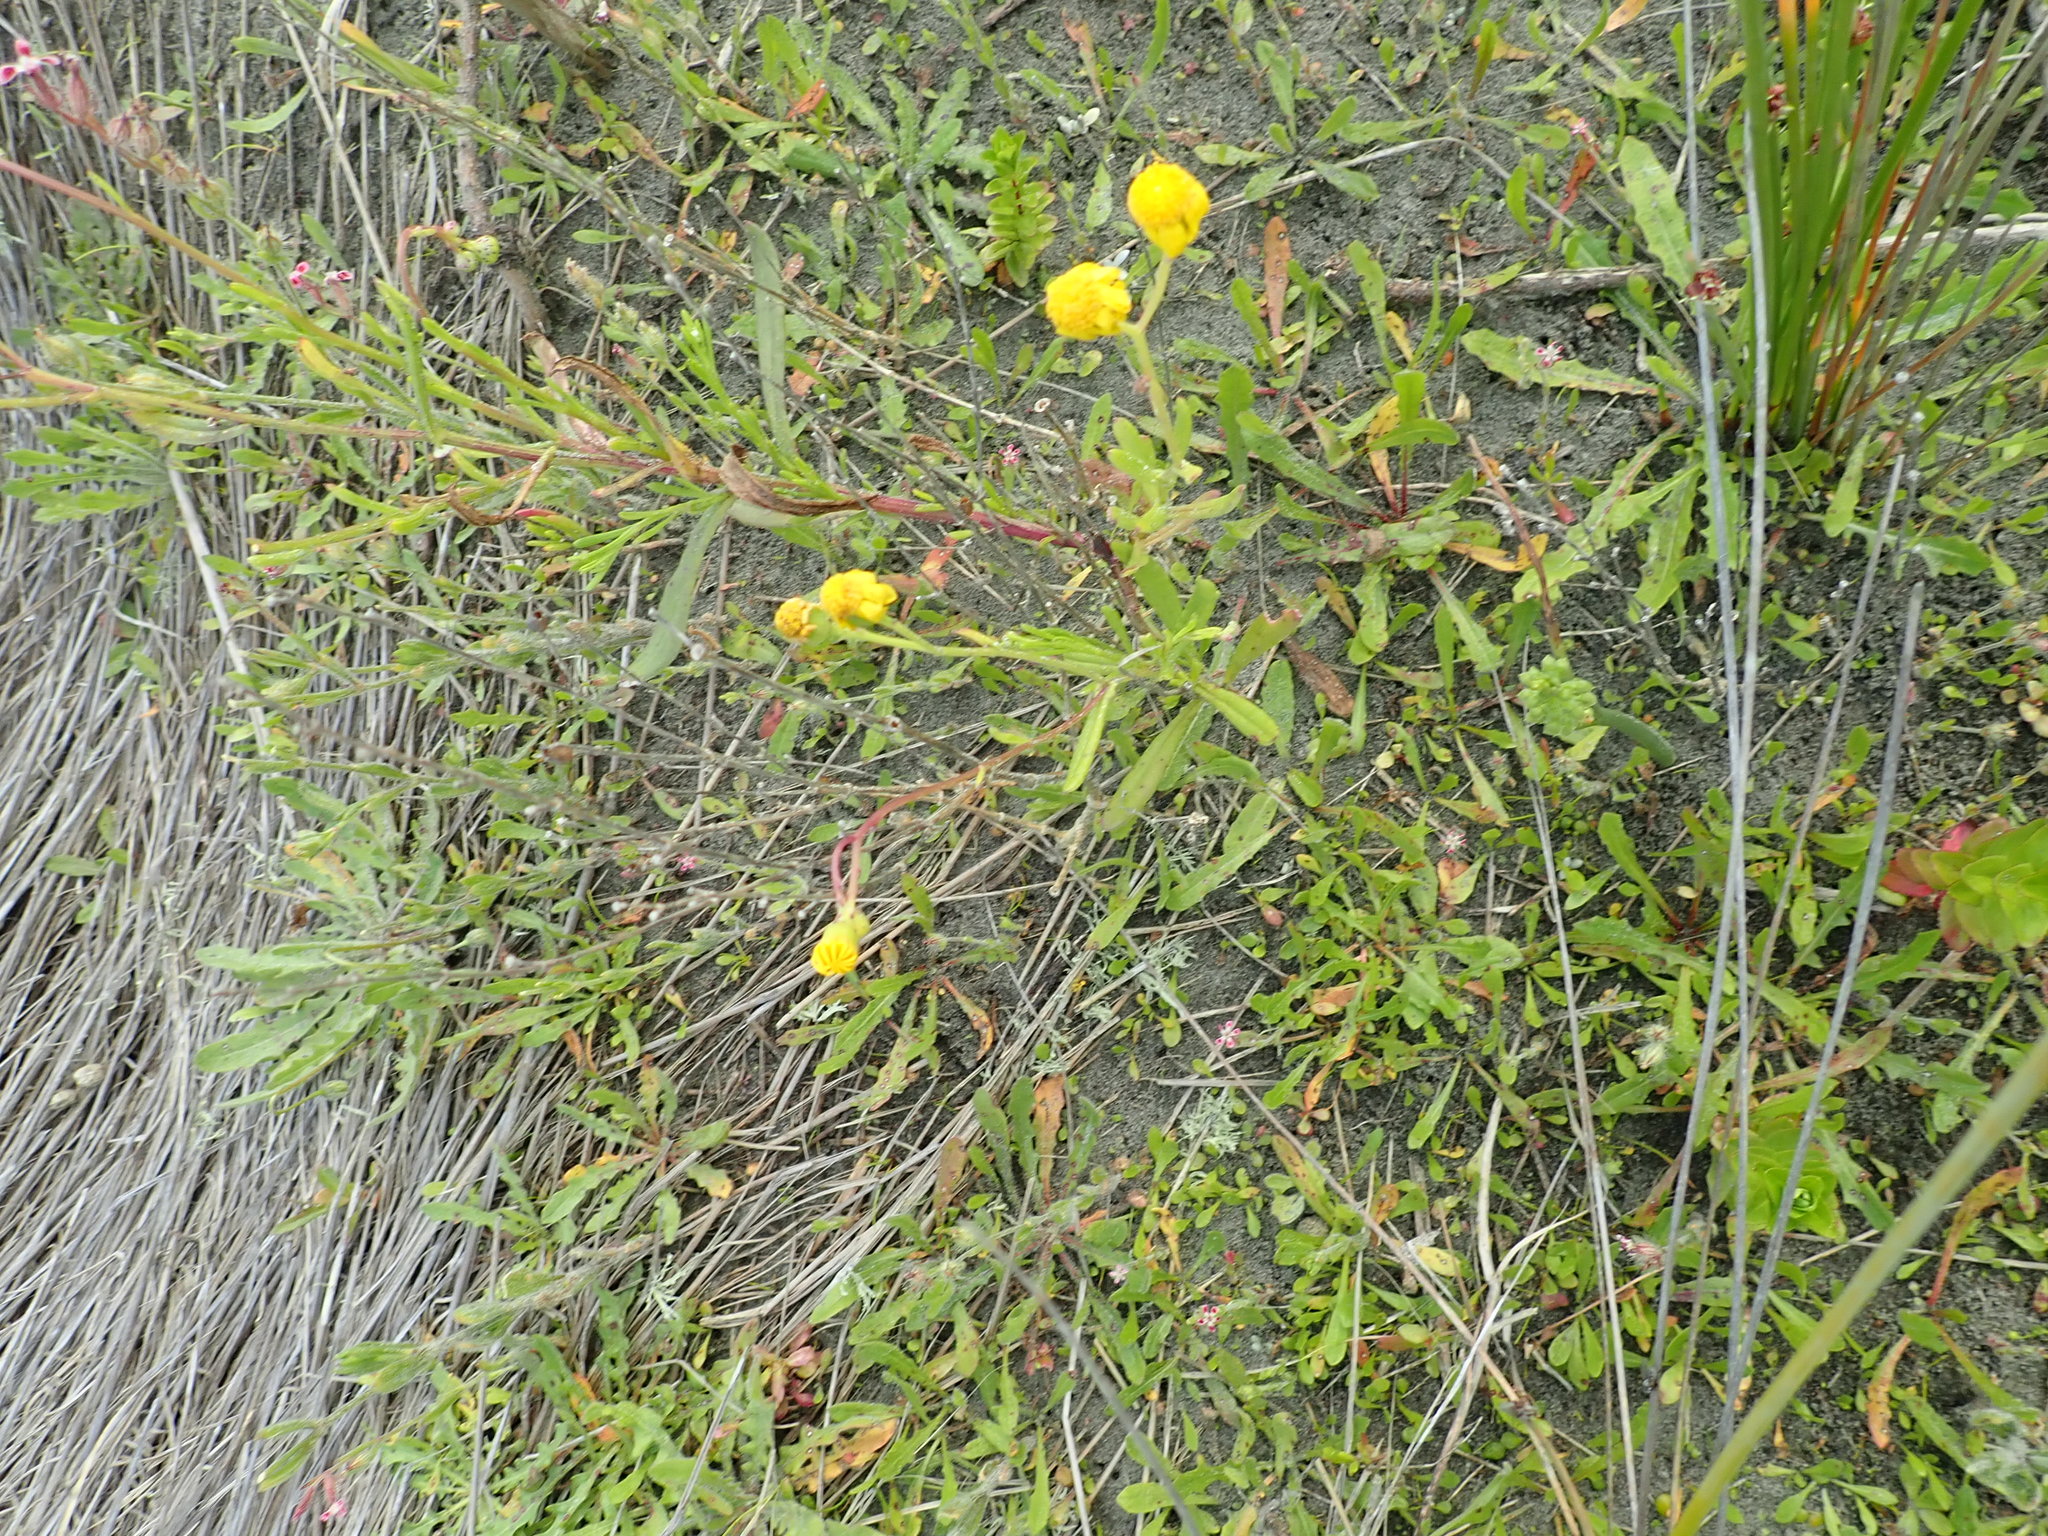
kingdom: Plantae
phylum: Tracheophyta
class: Magnoliopsida
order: Asterales
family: Asteraceae
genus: Senecio
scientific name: Senecio skirrhodon
